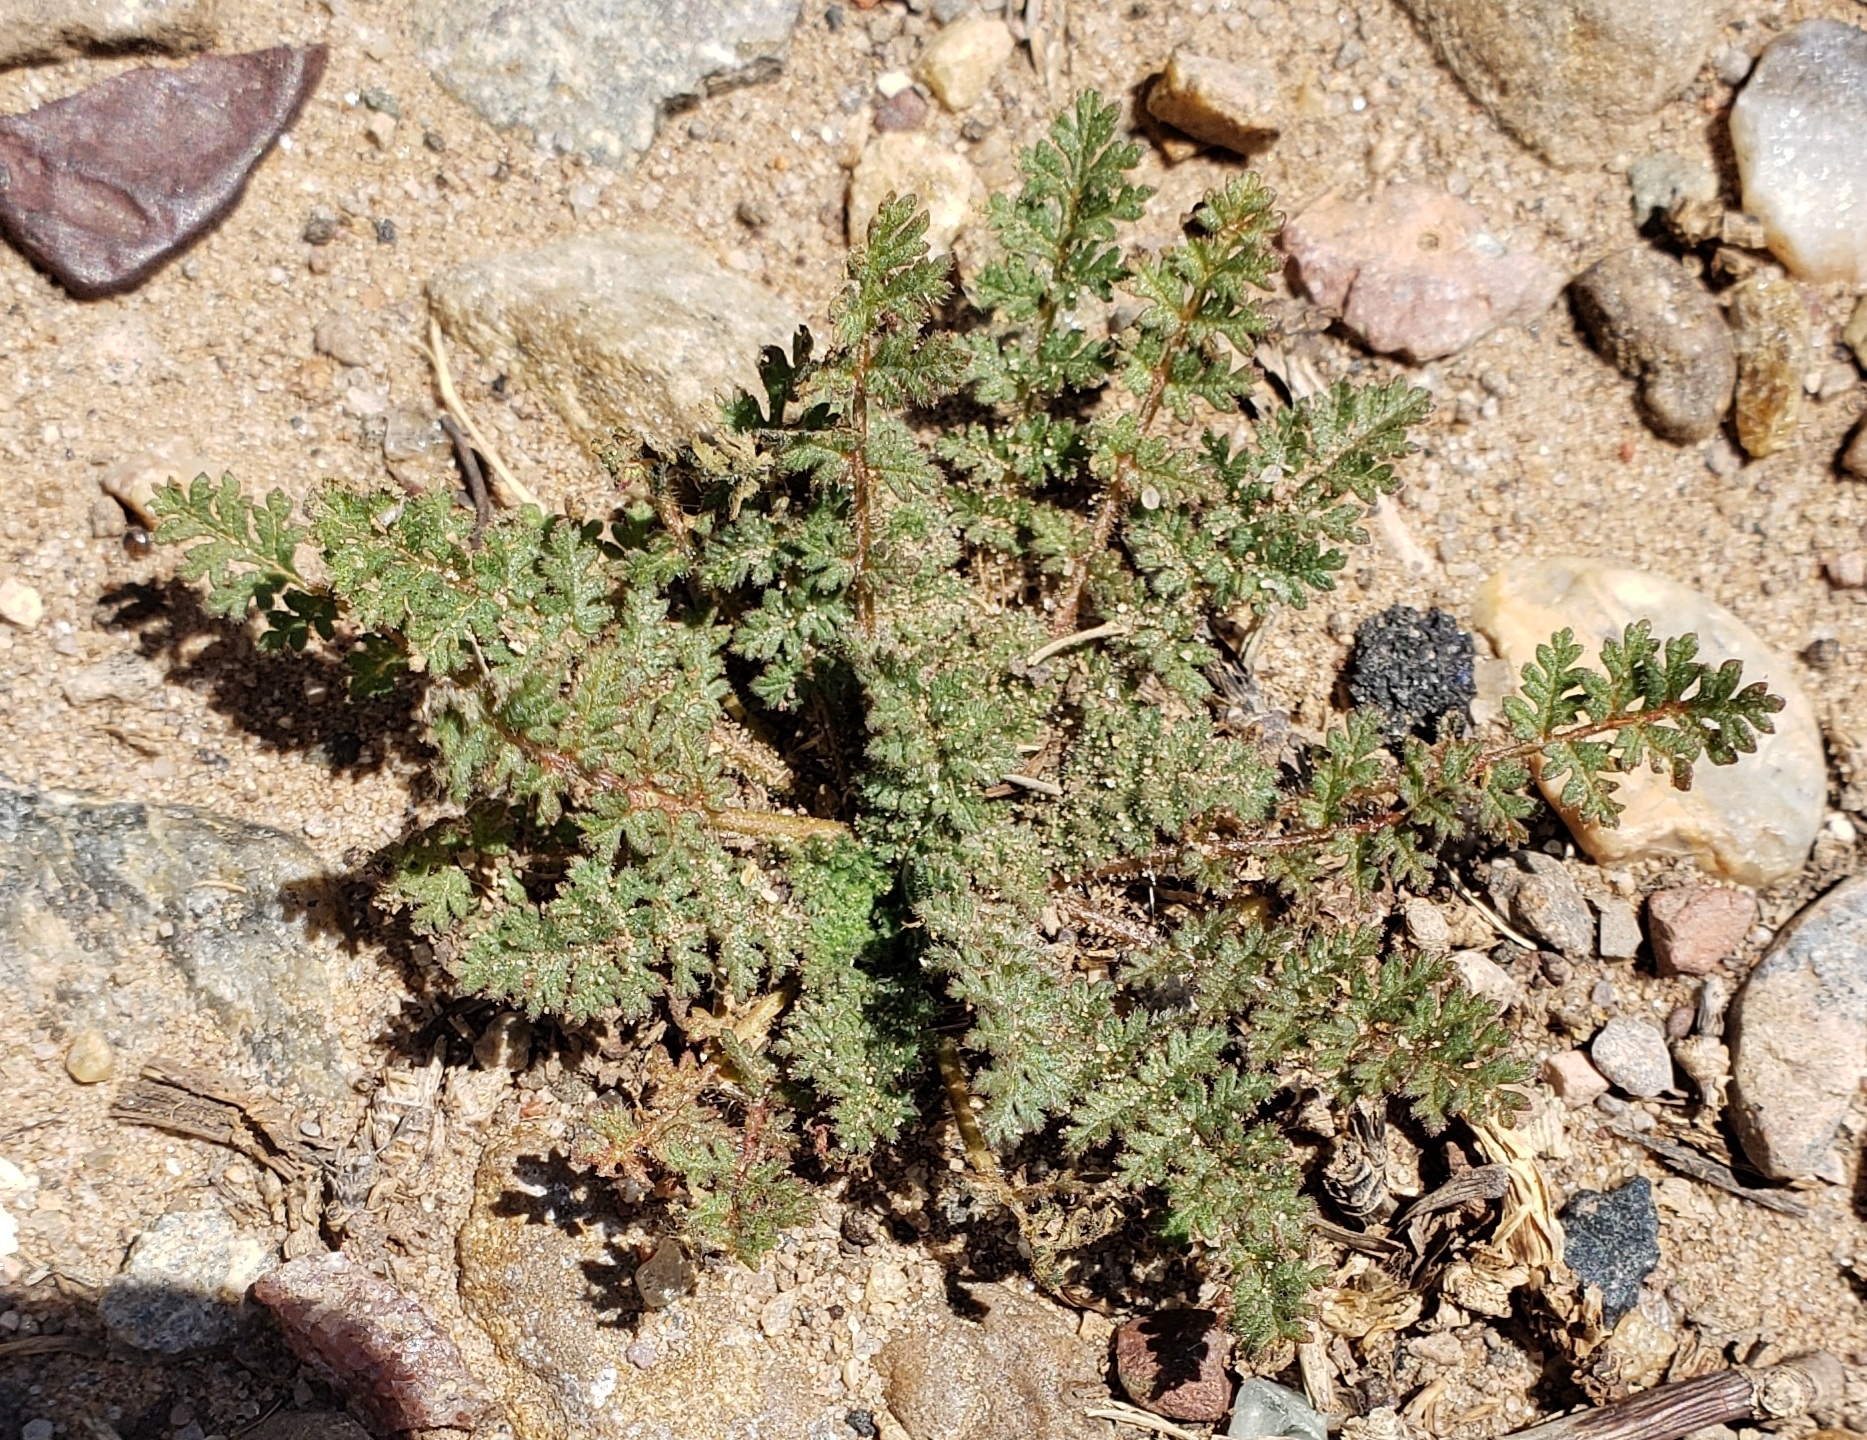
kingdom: Plantae
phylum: Tracheophyta
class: Magnoliopsida
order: Geraniales
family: Geraniaceae
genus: Erodium
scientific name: Erodium cicutarium
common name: Common stork's-bill
